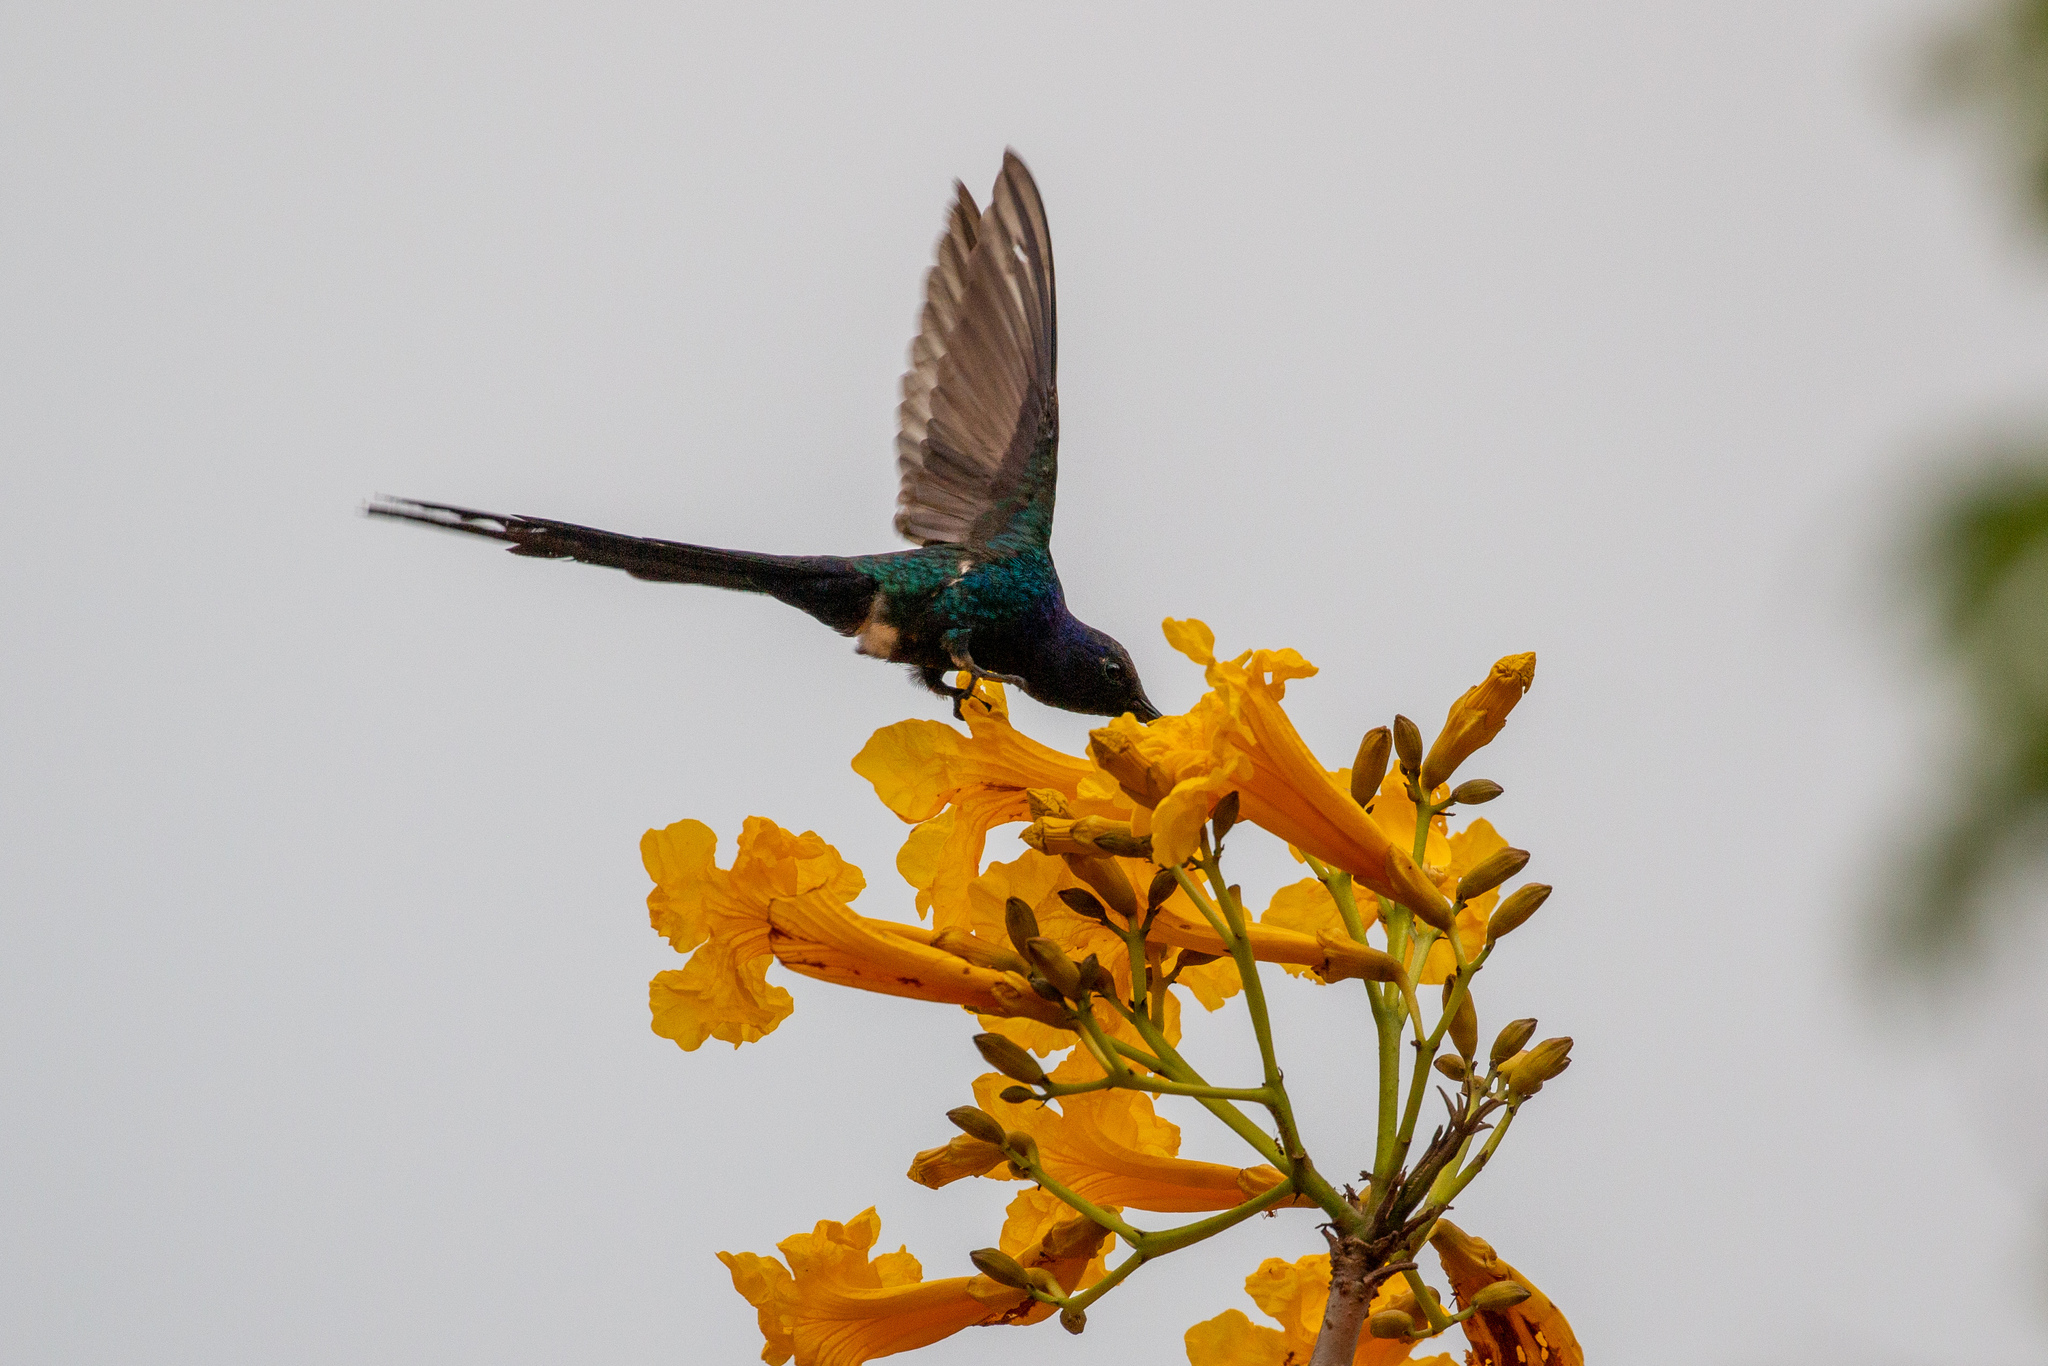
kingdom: Animalia
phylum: Chordata
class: Aves
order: Apodiformes
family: Trochilidae
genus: Eupetomena
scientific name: Eupetomena macroura
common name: Swallow-tailed hummingbird
